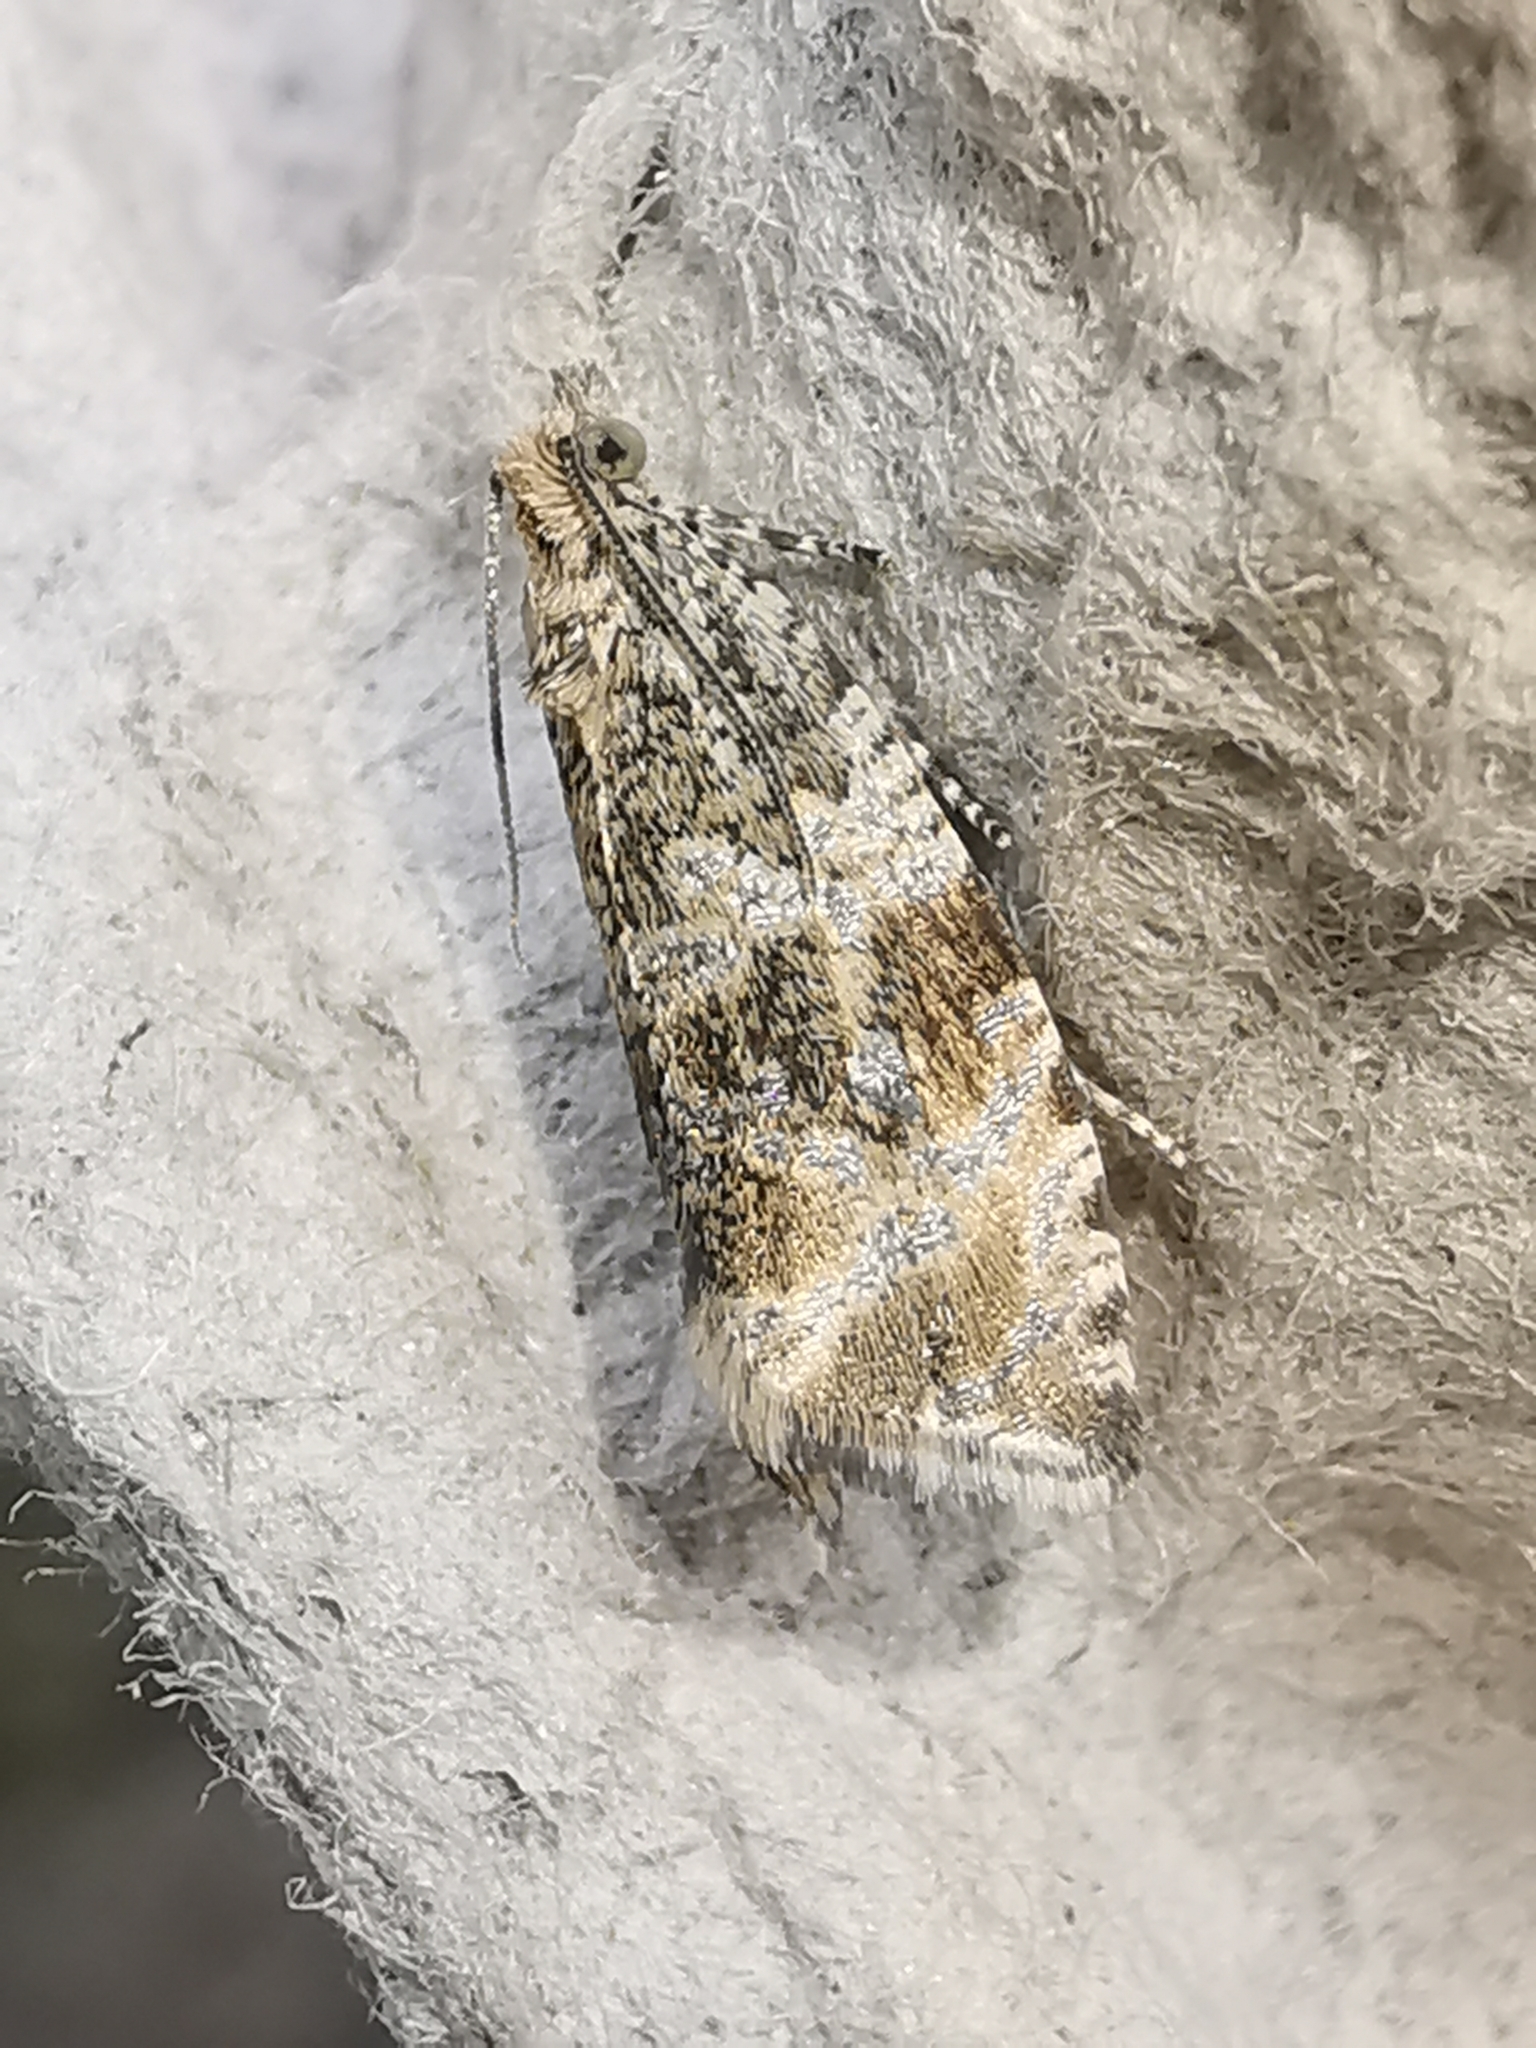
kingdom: Animalia
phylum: Arthropoda
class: Insecta
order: Lepidoptera
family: Tortricidae
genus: Syricoris
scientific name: Syricoris lacunana
